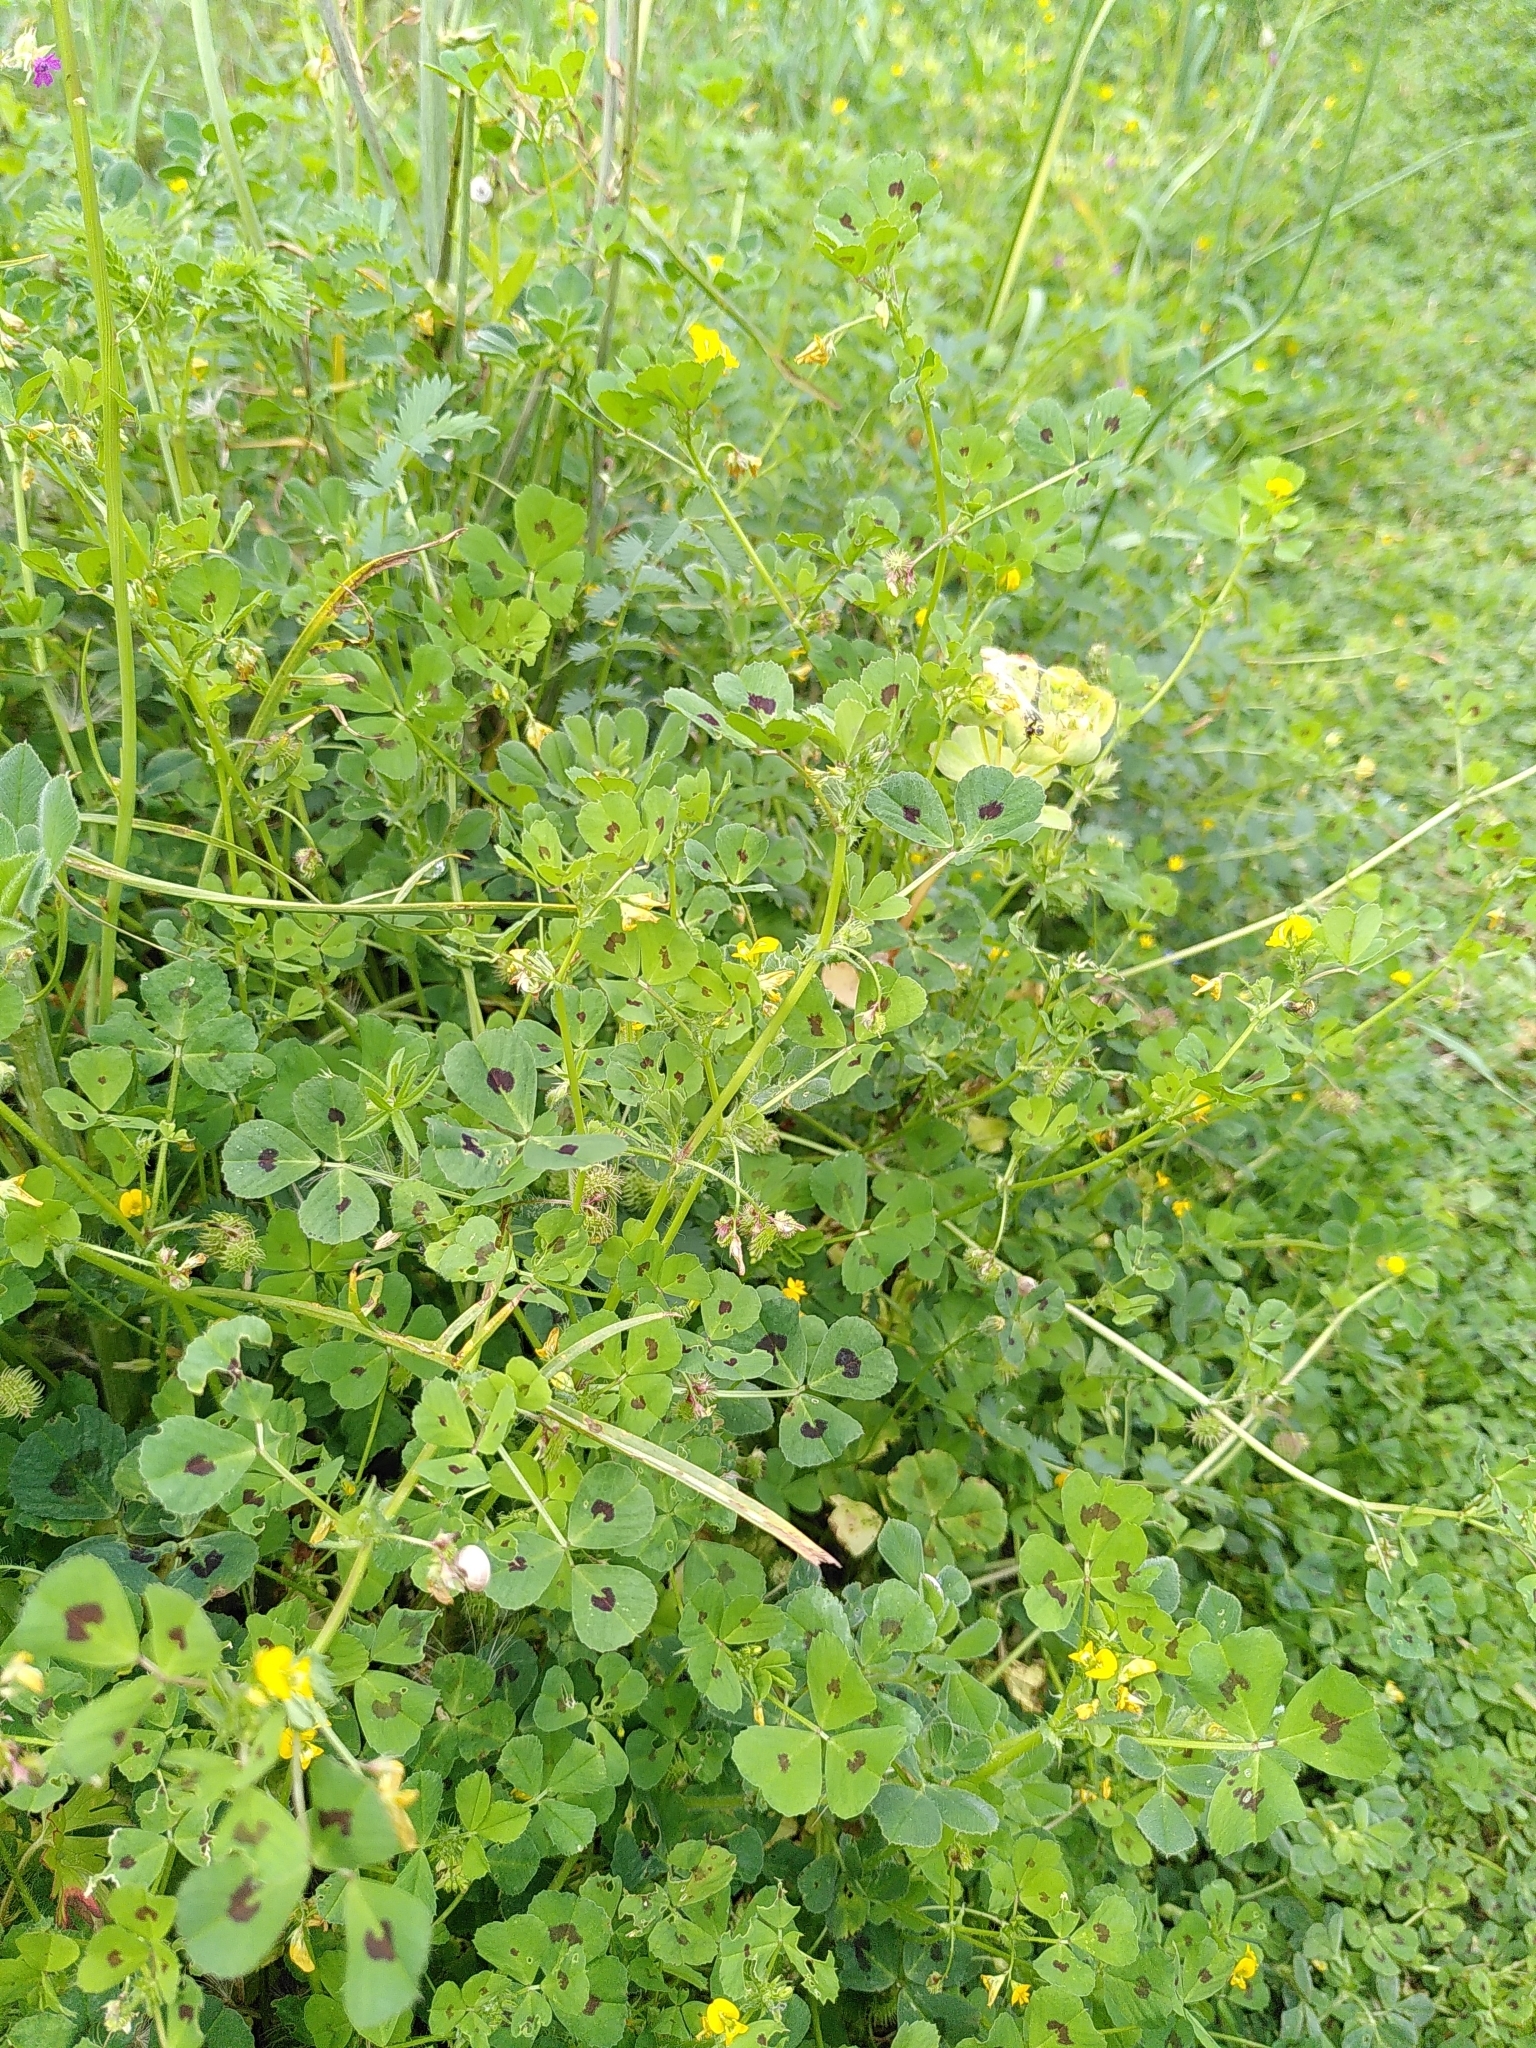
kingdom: Plantae
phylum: Tracheophyta
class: Magnoliopsida
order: Fabales
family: Fabaceae
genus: Medicago
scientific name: Medicago arabica
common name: Spotted medick
